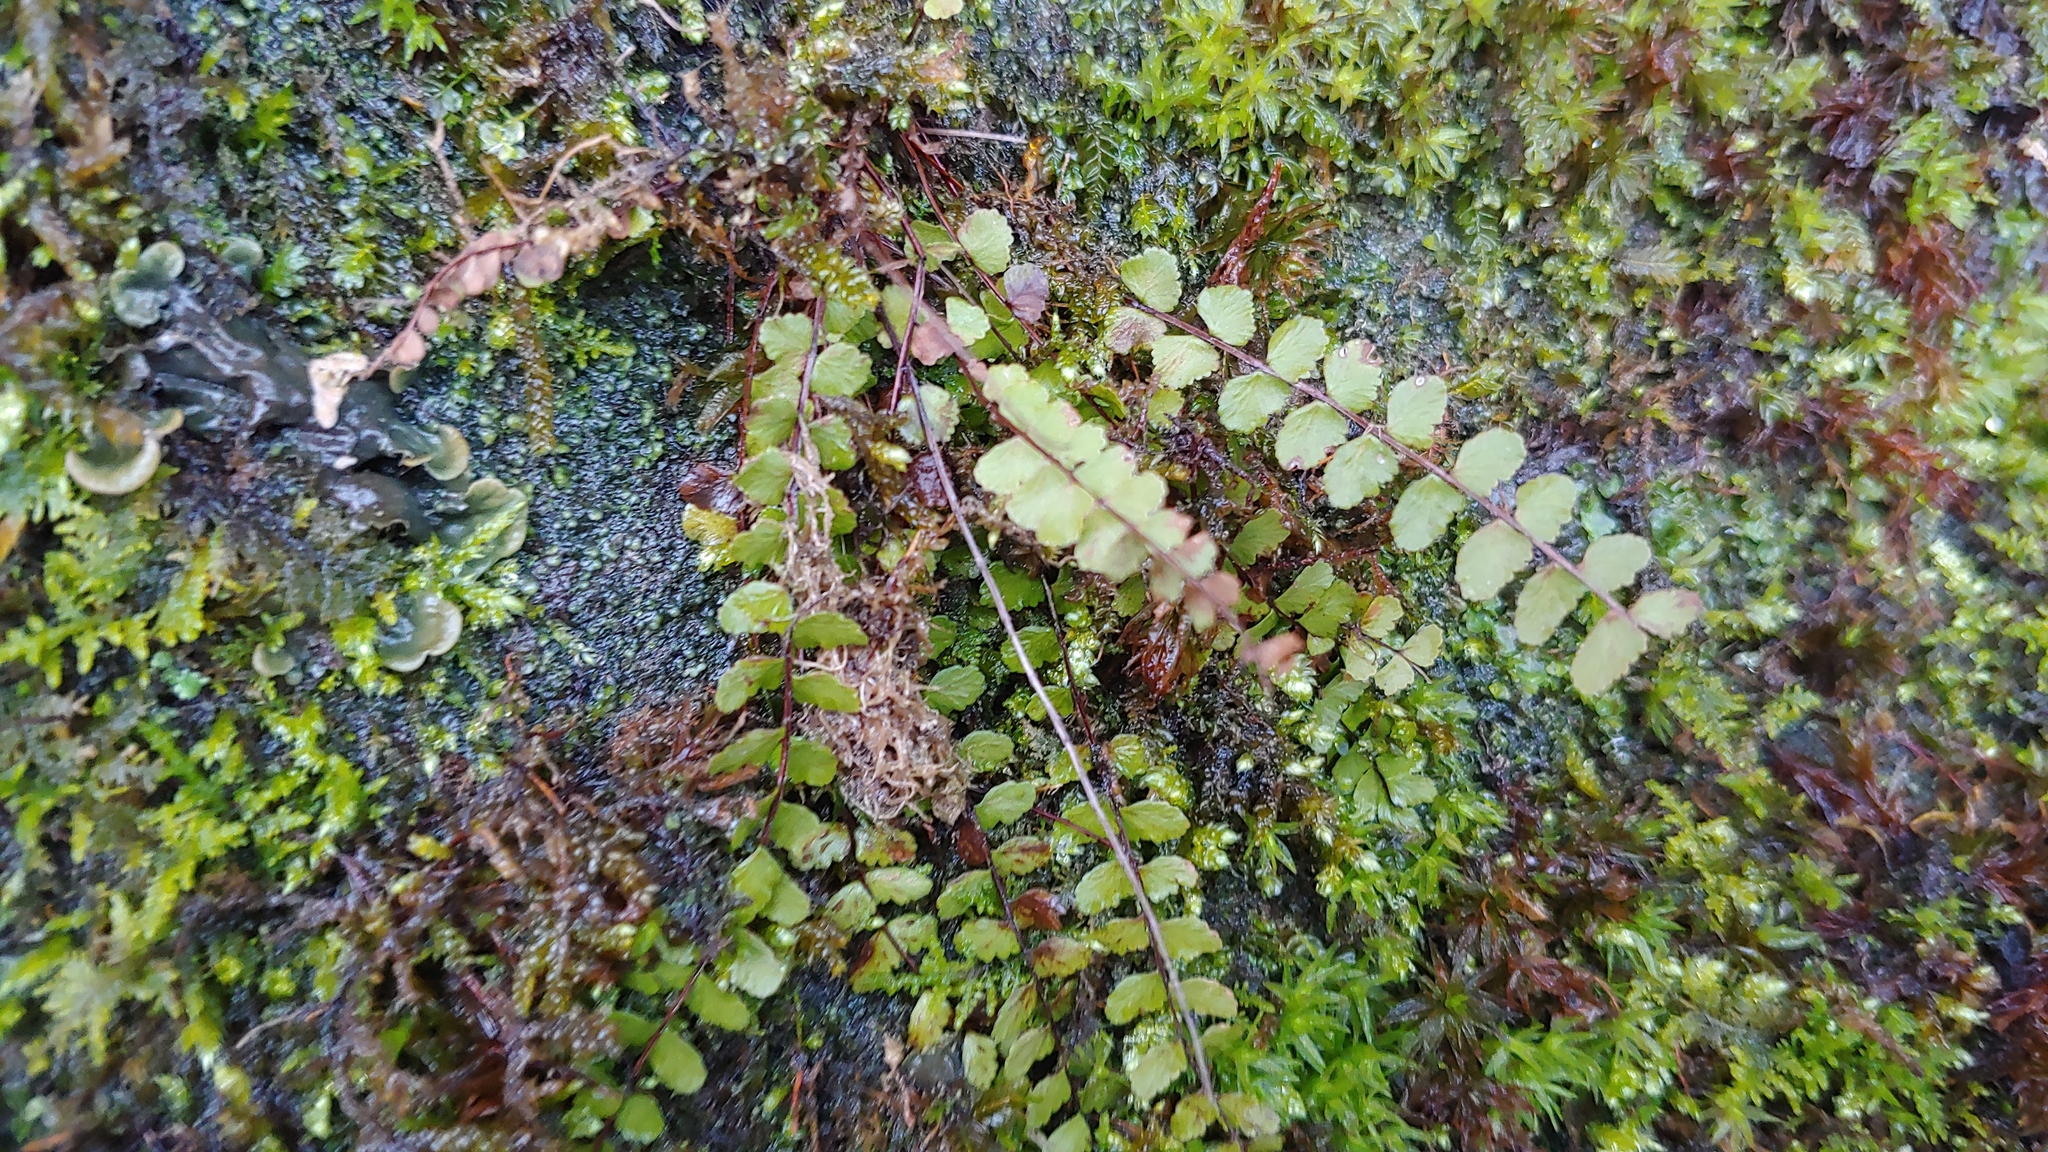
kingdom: Plantae
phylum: Tracheophyta
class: Polypodiopsida
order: Polypodiales
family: Aspleniaceae
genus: Asplenium
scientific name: Asplenium trichomanes
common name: Maidenhair spleenwort
